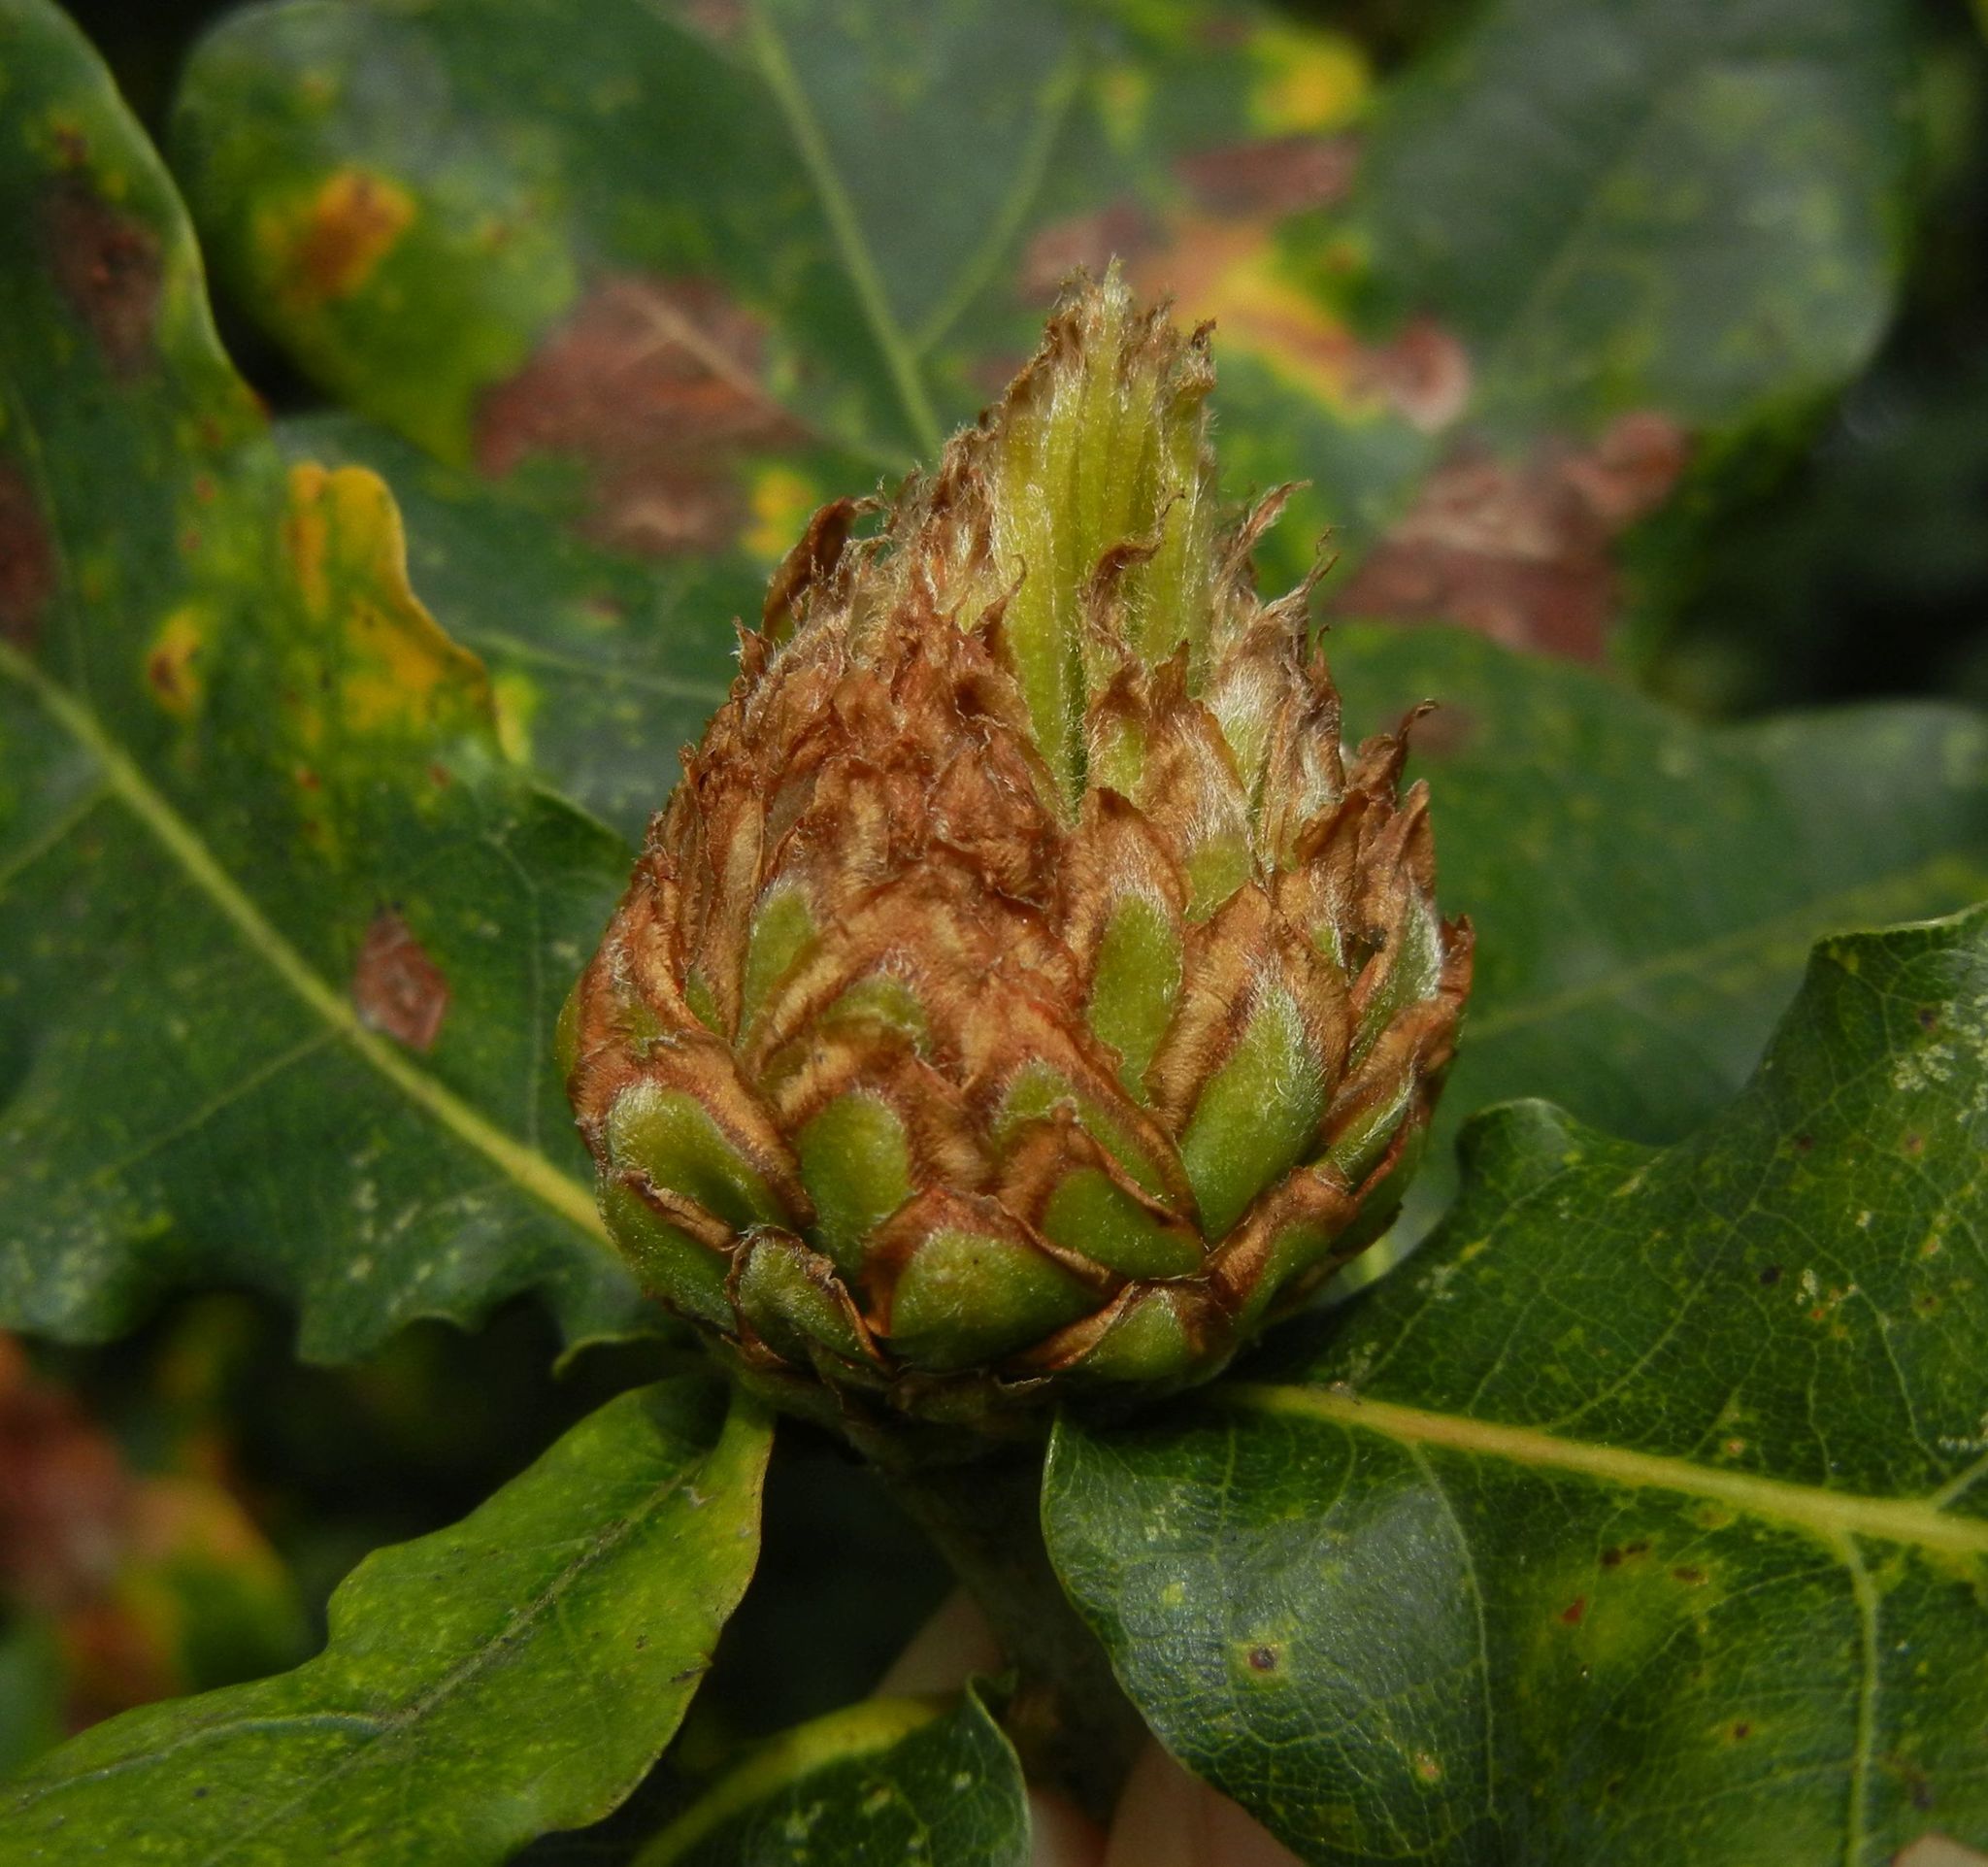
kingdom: Animalia
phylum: Arthropoda
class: Insecta
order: Hymenoptera
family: Cynipidae
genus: Andricus
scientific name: Andricus foecundatrix
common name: Artichoke gall
